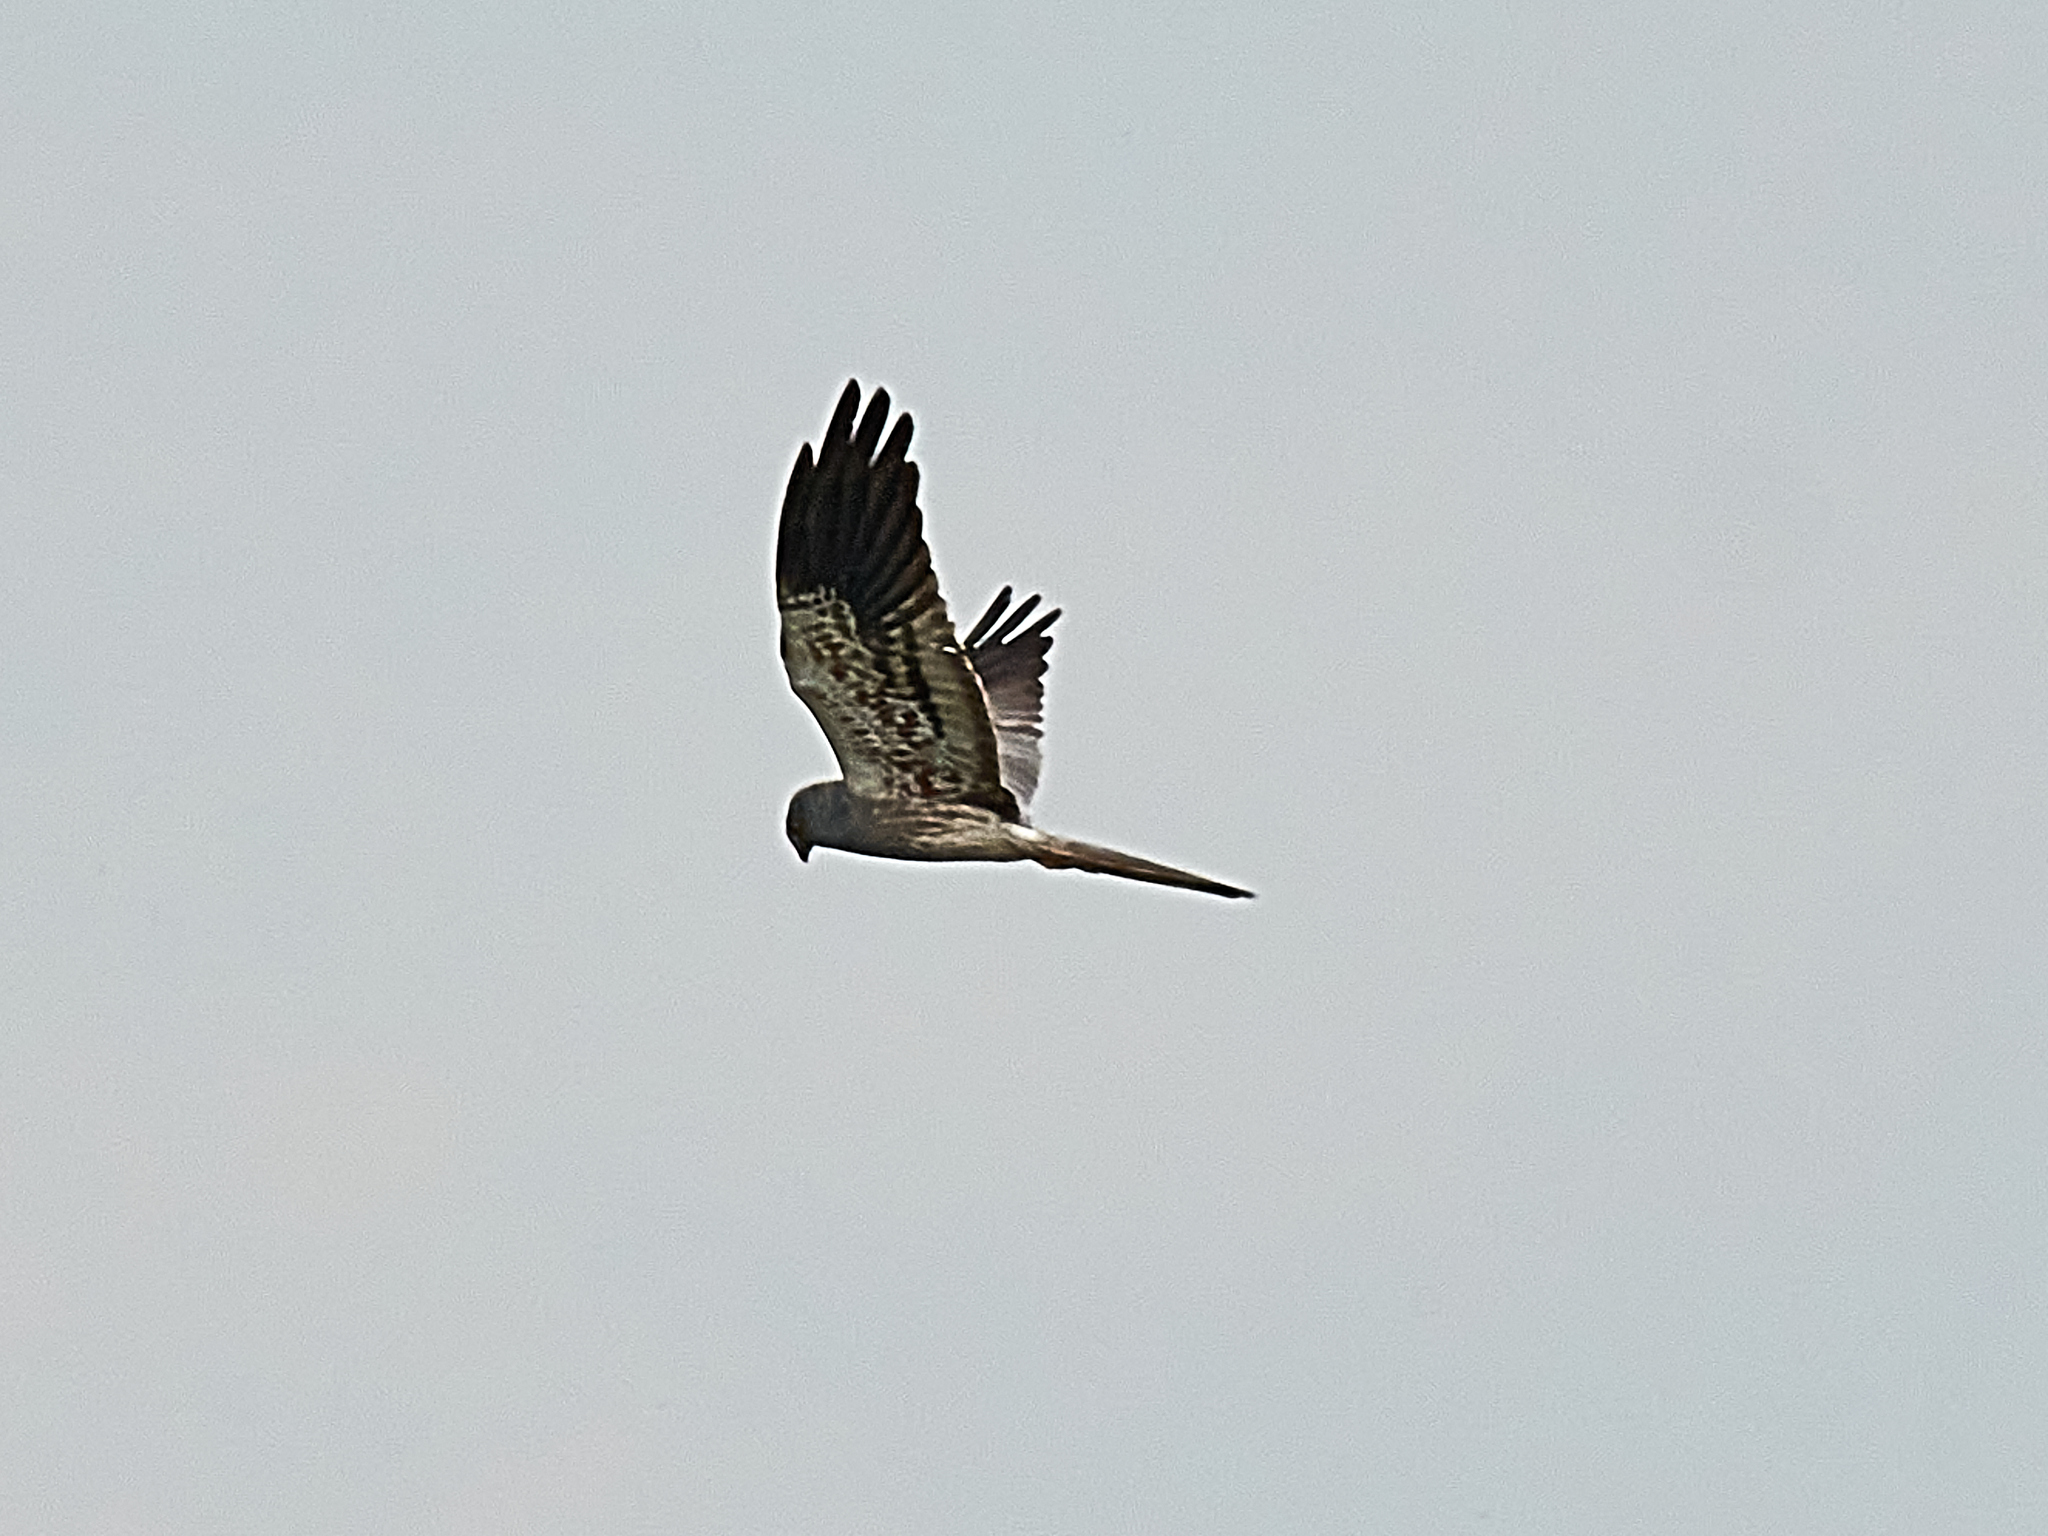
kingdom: Animalia
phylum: Chordata
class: Aves
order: Accipitriformes
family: Accipitridae
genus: Circus
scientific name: Circus pygargus
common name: Montagu's harrier
